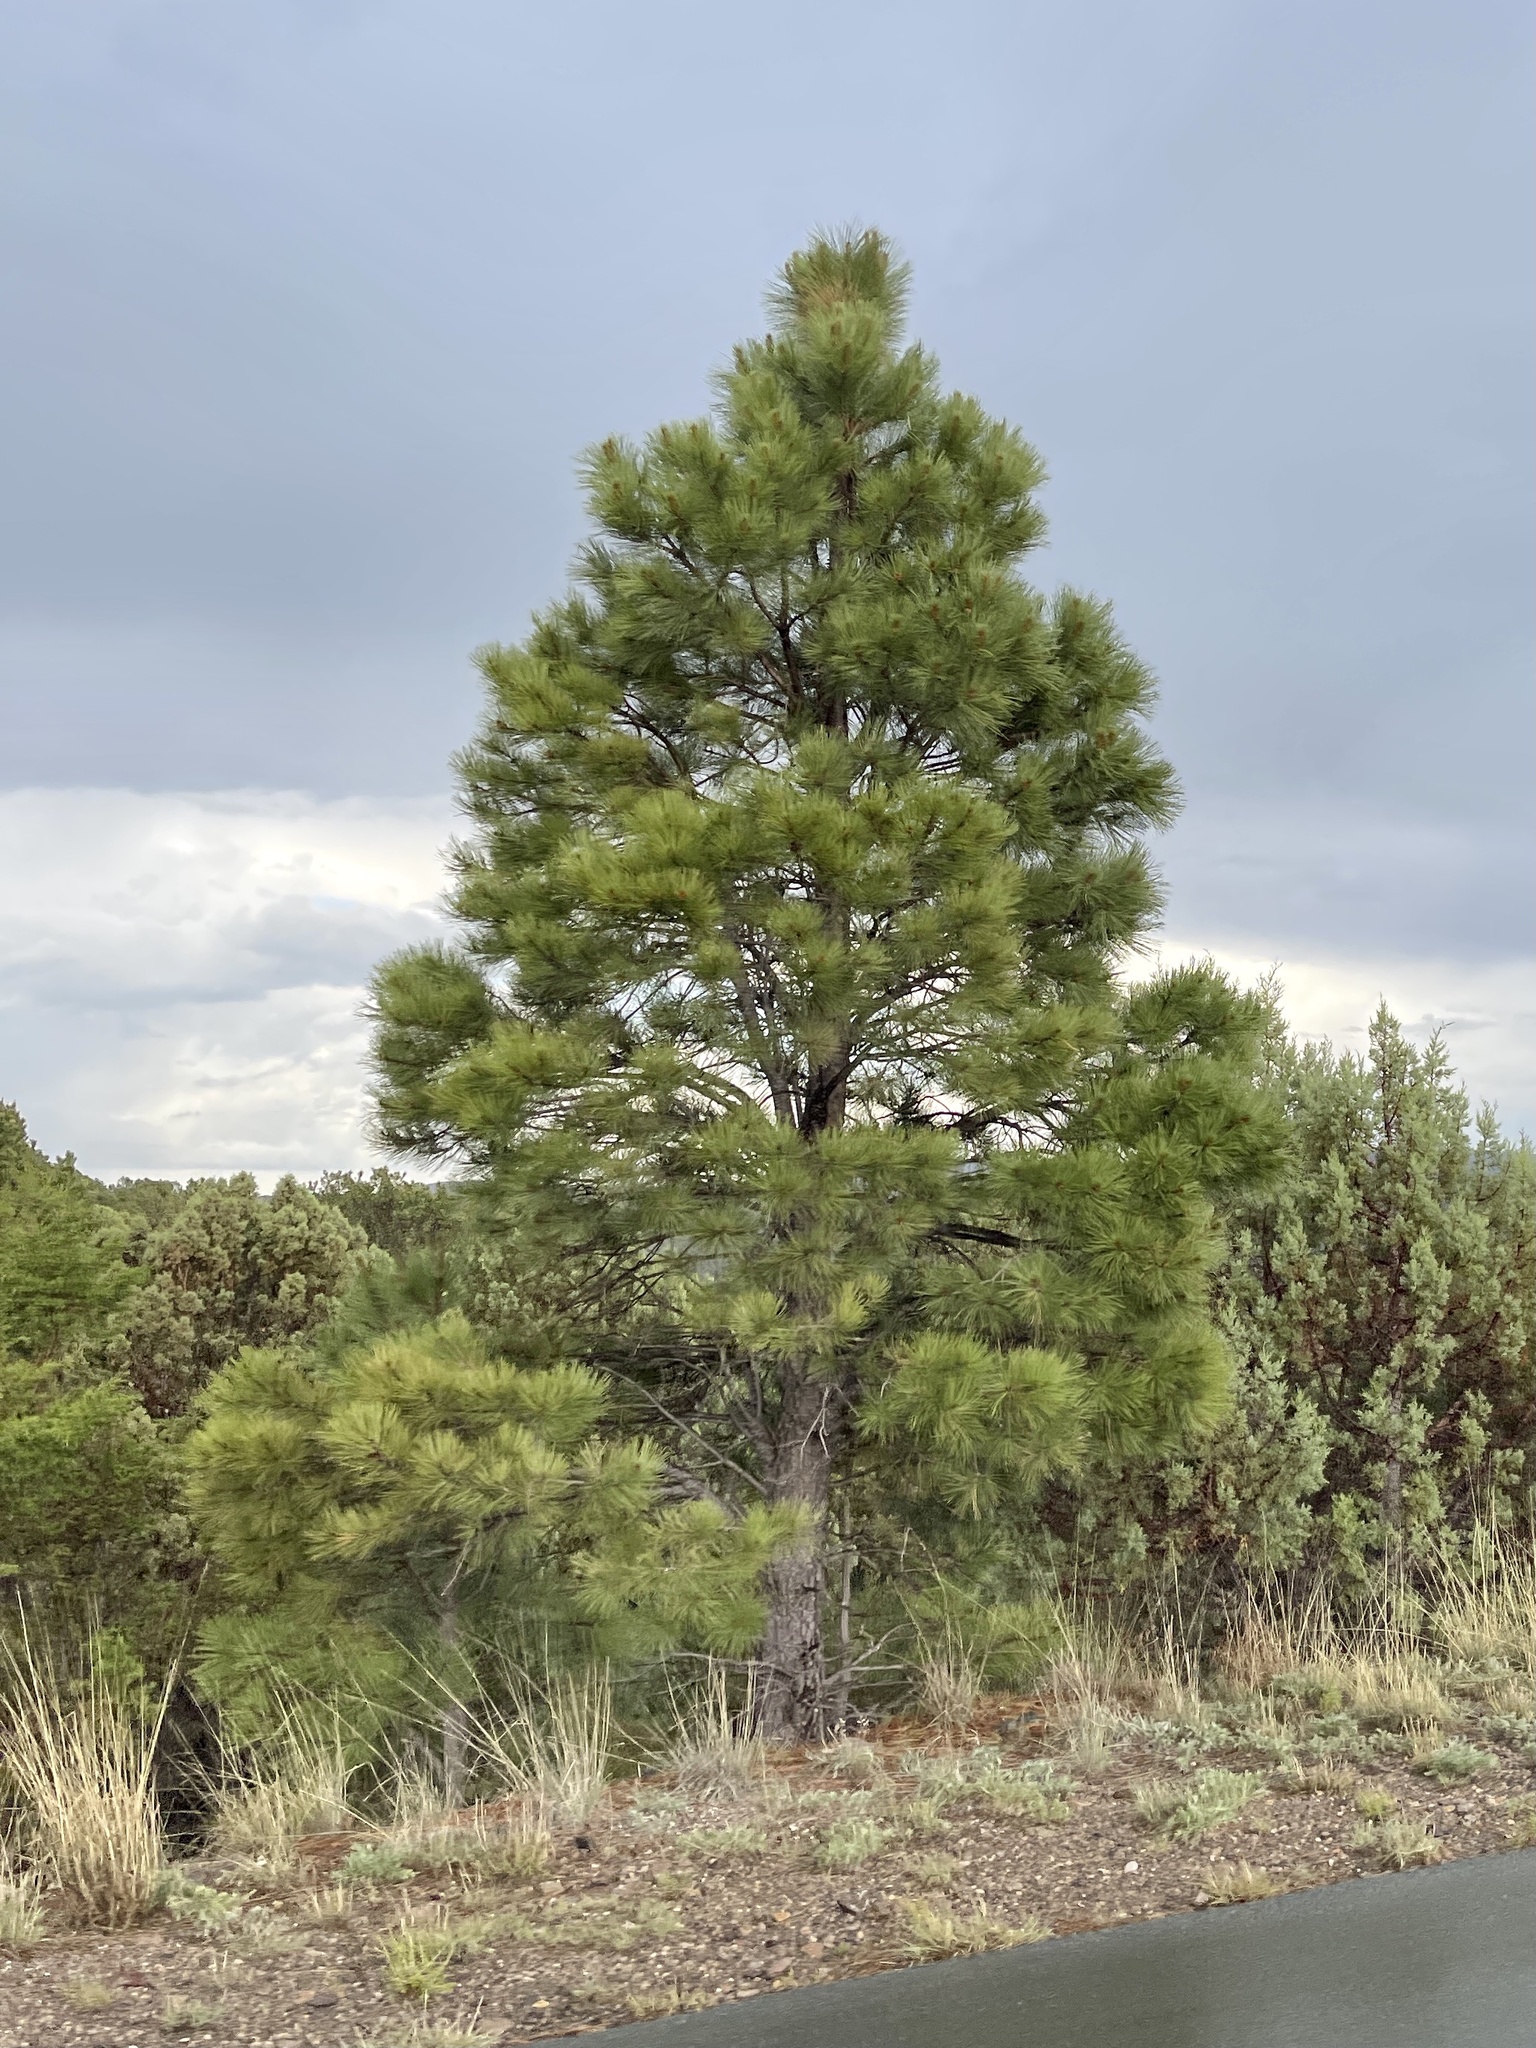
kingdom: Plantae
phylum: Tracheophyta
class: Pinopsida
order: Pinales
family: Pinaceae
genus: Pinus
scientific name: Pinus ponderosa
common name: Western yellow-pine
